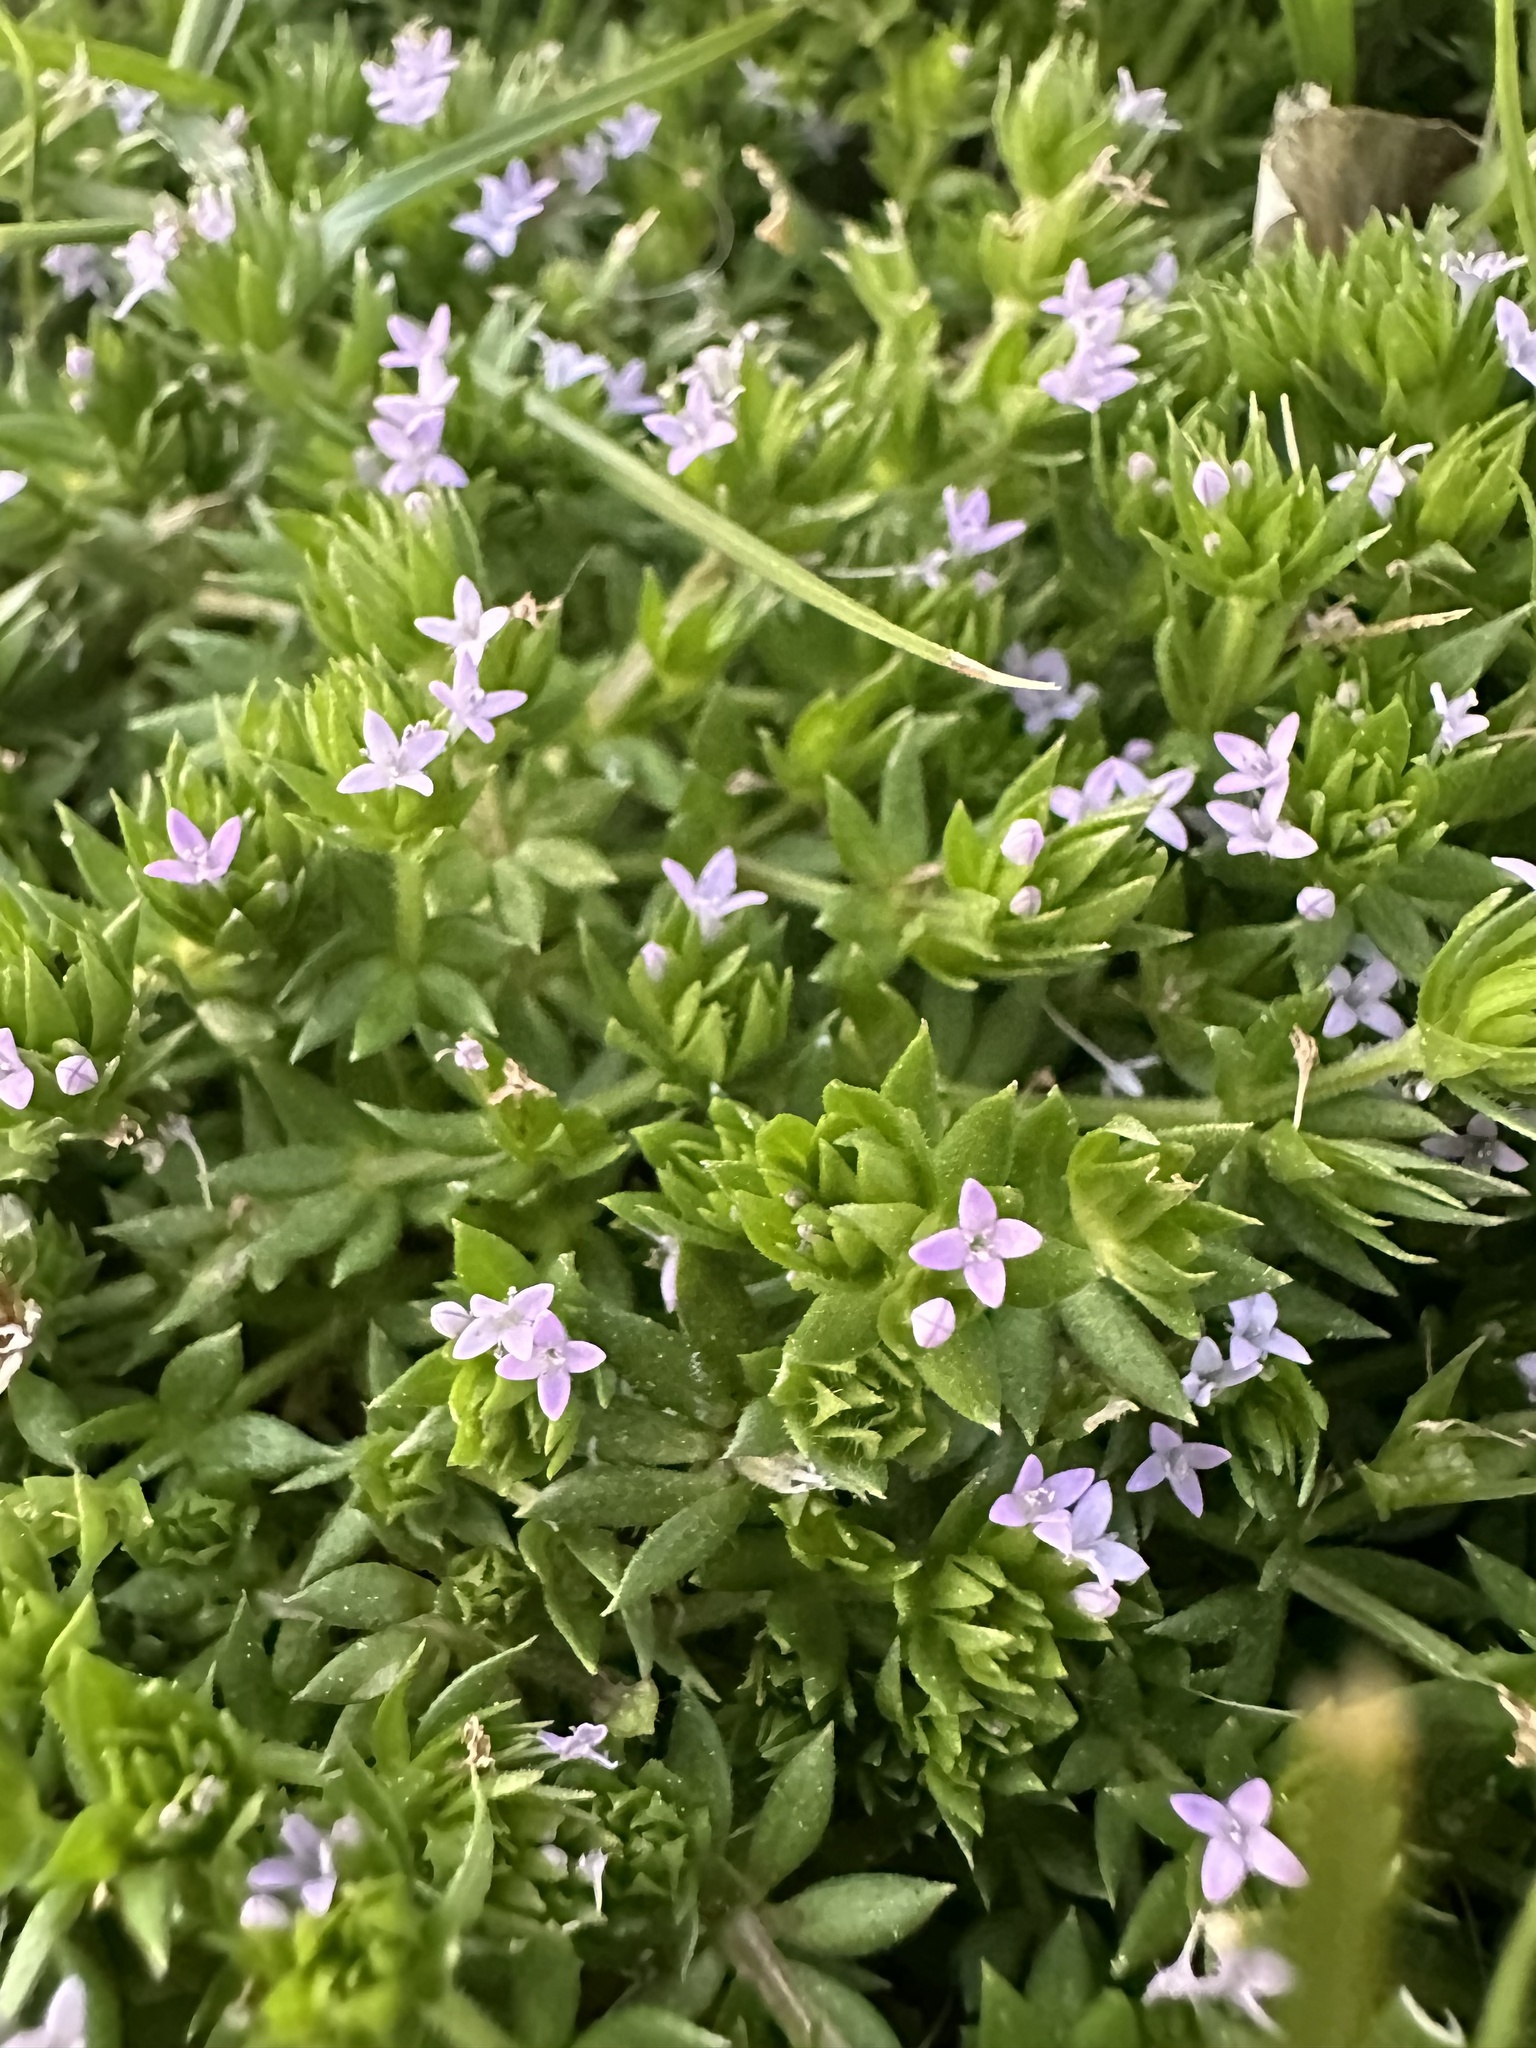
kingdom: Plantae
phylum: Tracheophyta
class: Magnoliopsida
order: Gentianales
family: Rubiaceae
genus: Sherardia
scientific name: Sherardia arvensis
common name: Field madder
